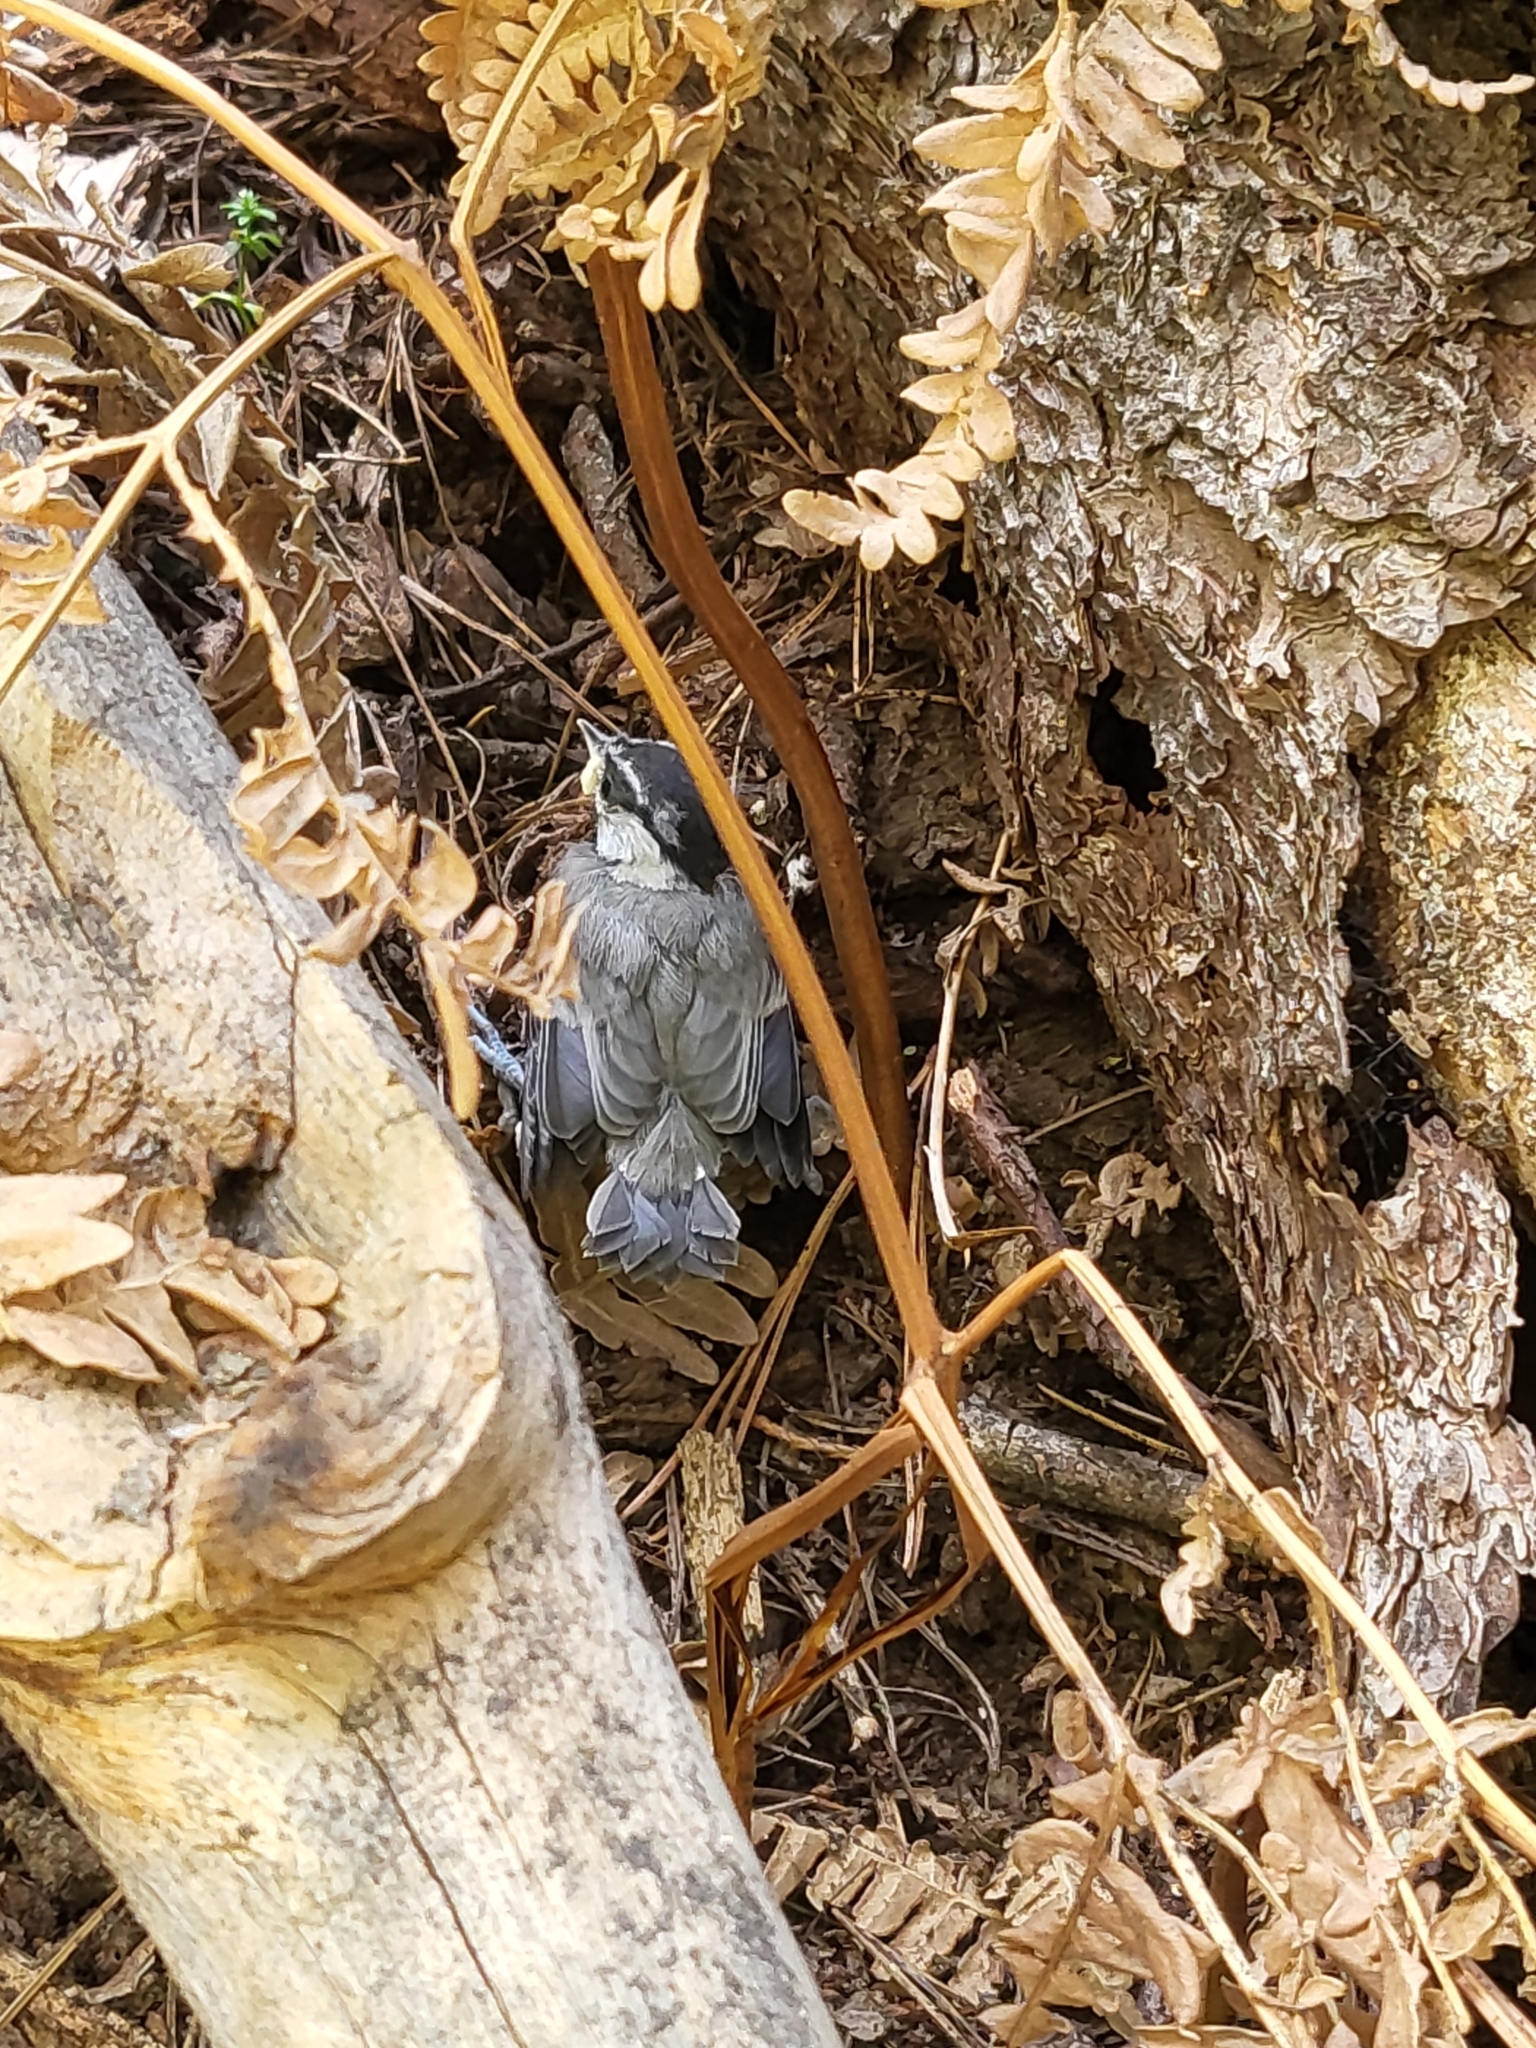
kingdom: Animalia
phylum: Chordata
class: Aves
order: Passeriformes
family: Paridae
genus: Poecile
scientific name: Poecile gambeli
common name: Mountain chickadee
